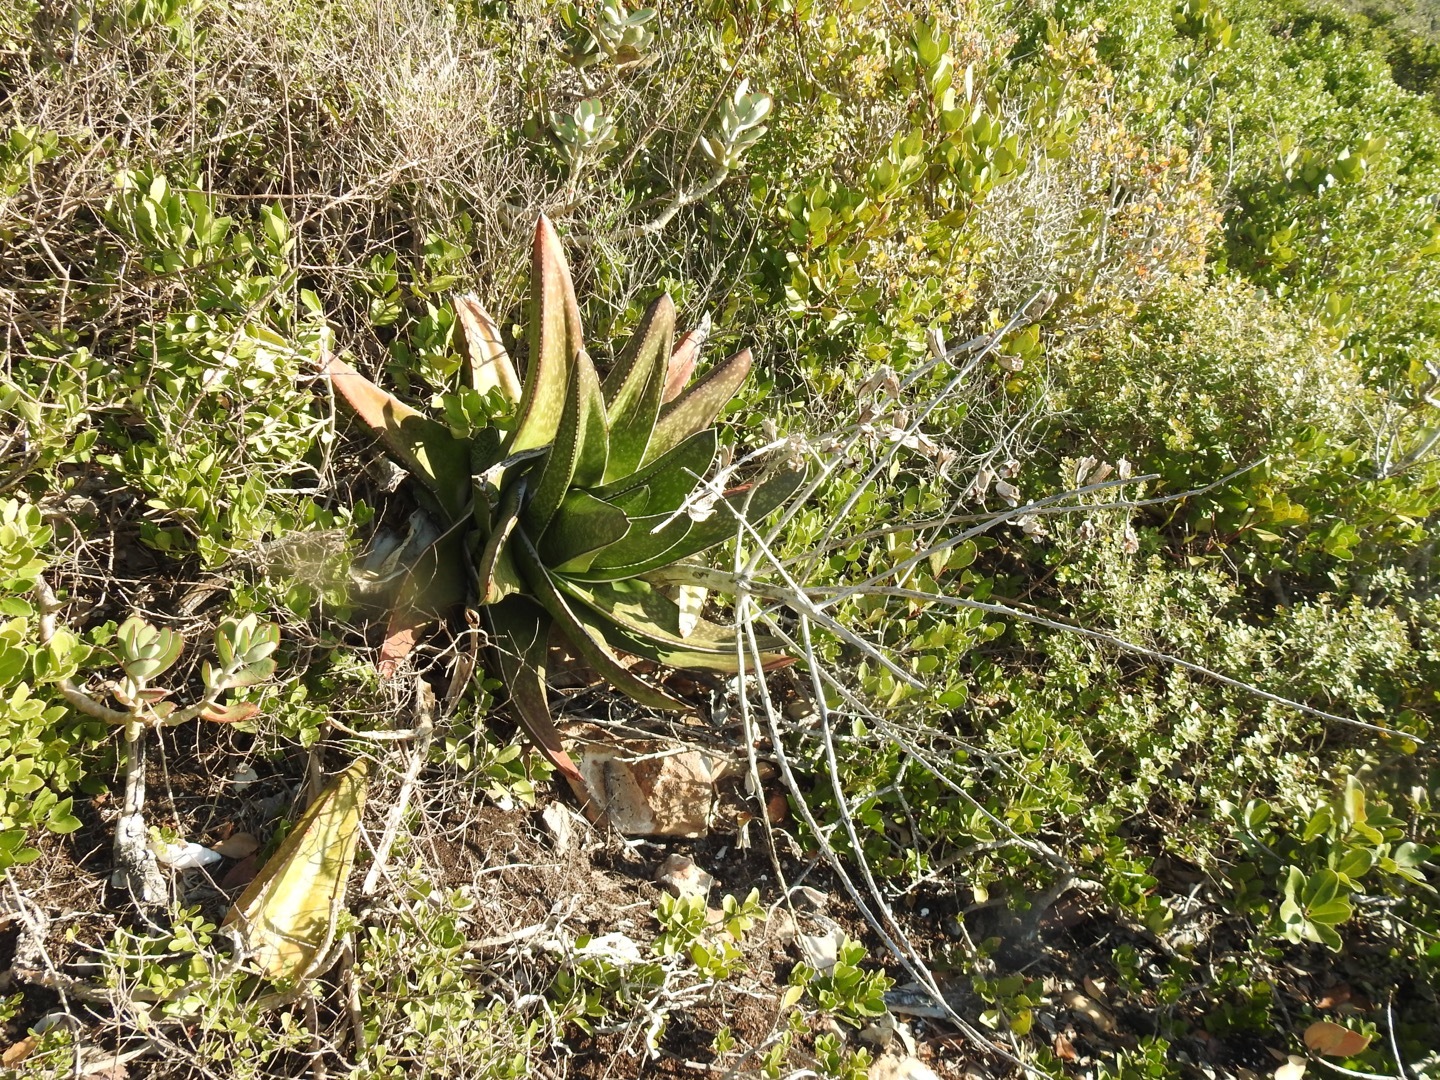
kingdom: Plantae
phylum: Tracheophyta
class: Liliopsida
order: Asparagales
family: Asphodelaceae
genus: Gasteria
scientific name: Gasteria acinacifolia
